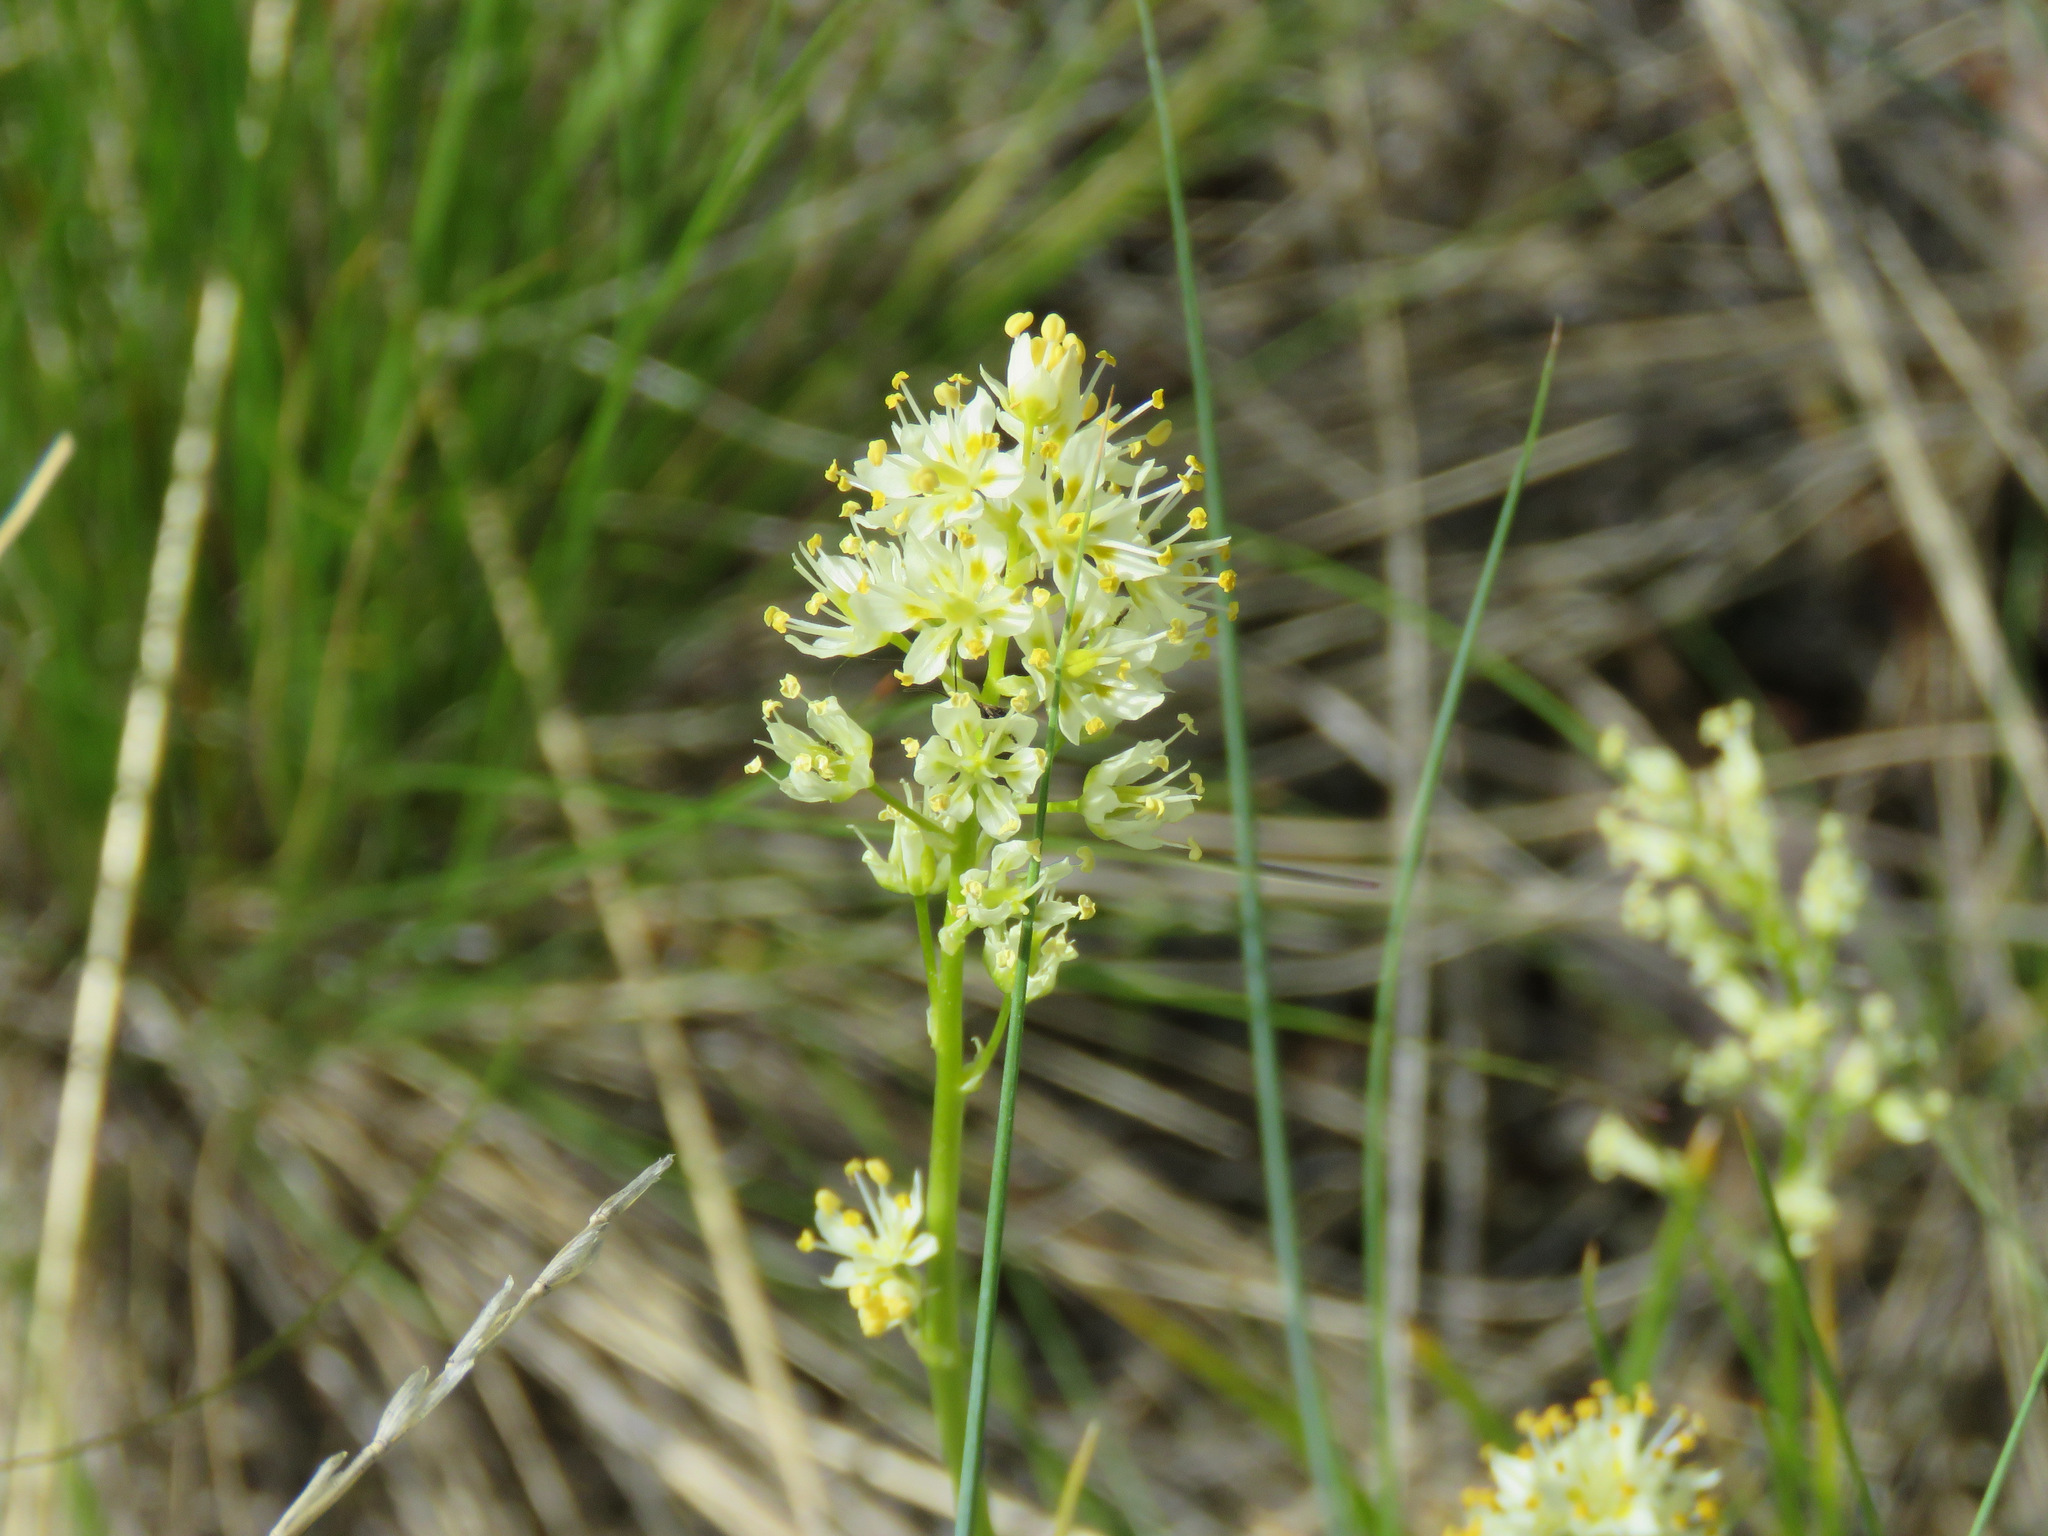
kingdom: Plantae
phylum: Tracheophyta
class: Liliopsida
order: Liliales
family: Melanthiaceae
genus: Toxicoscordion
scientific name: Toxicoscordion venenosum
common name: Meadow death camas
